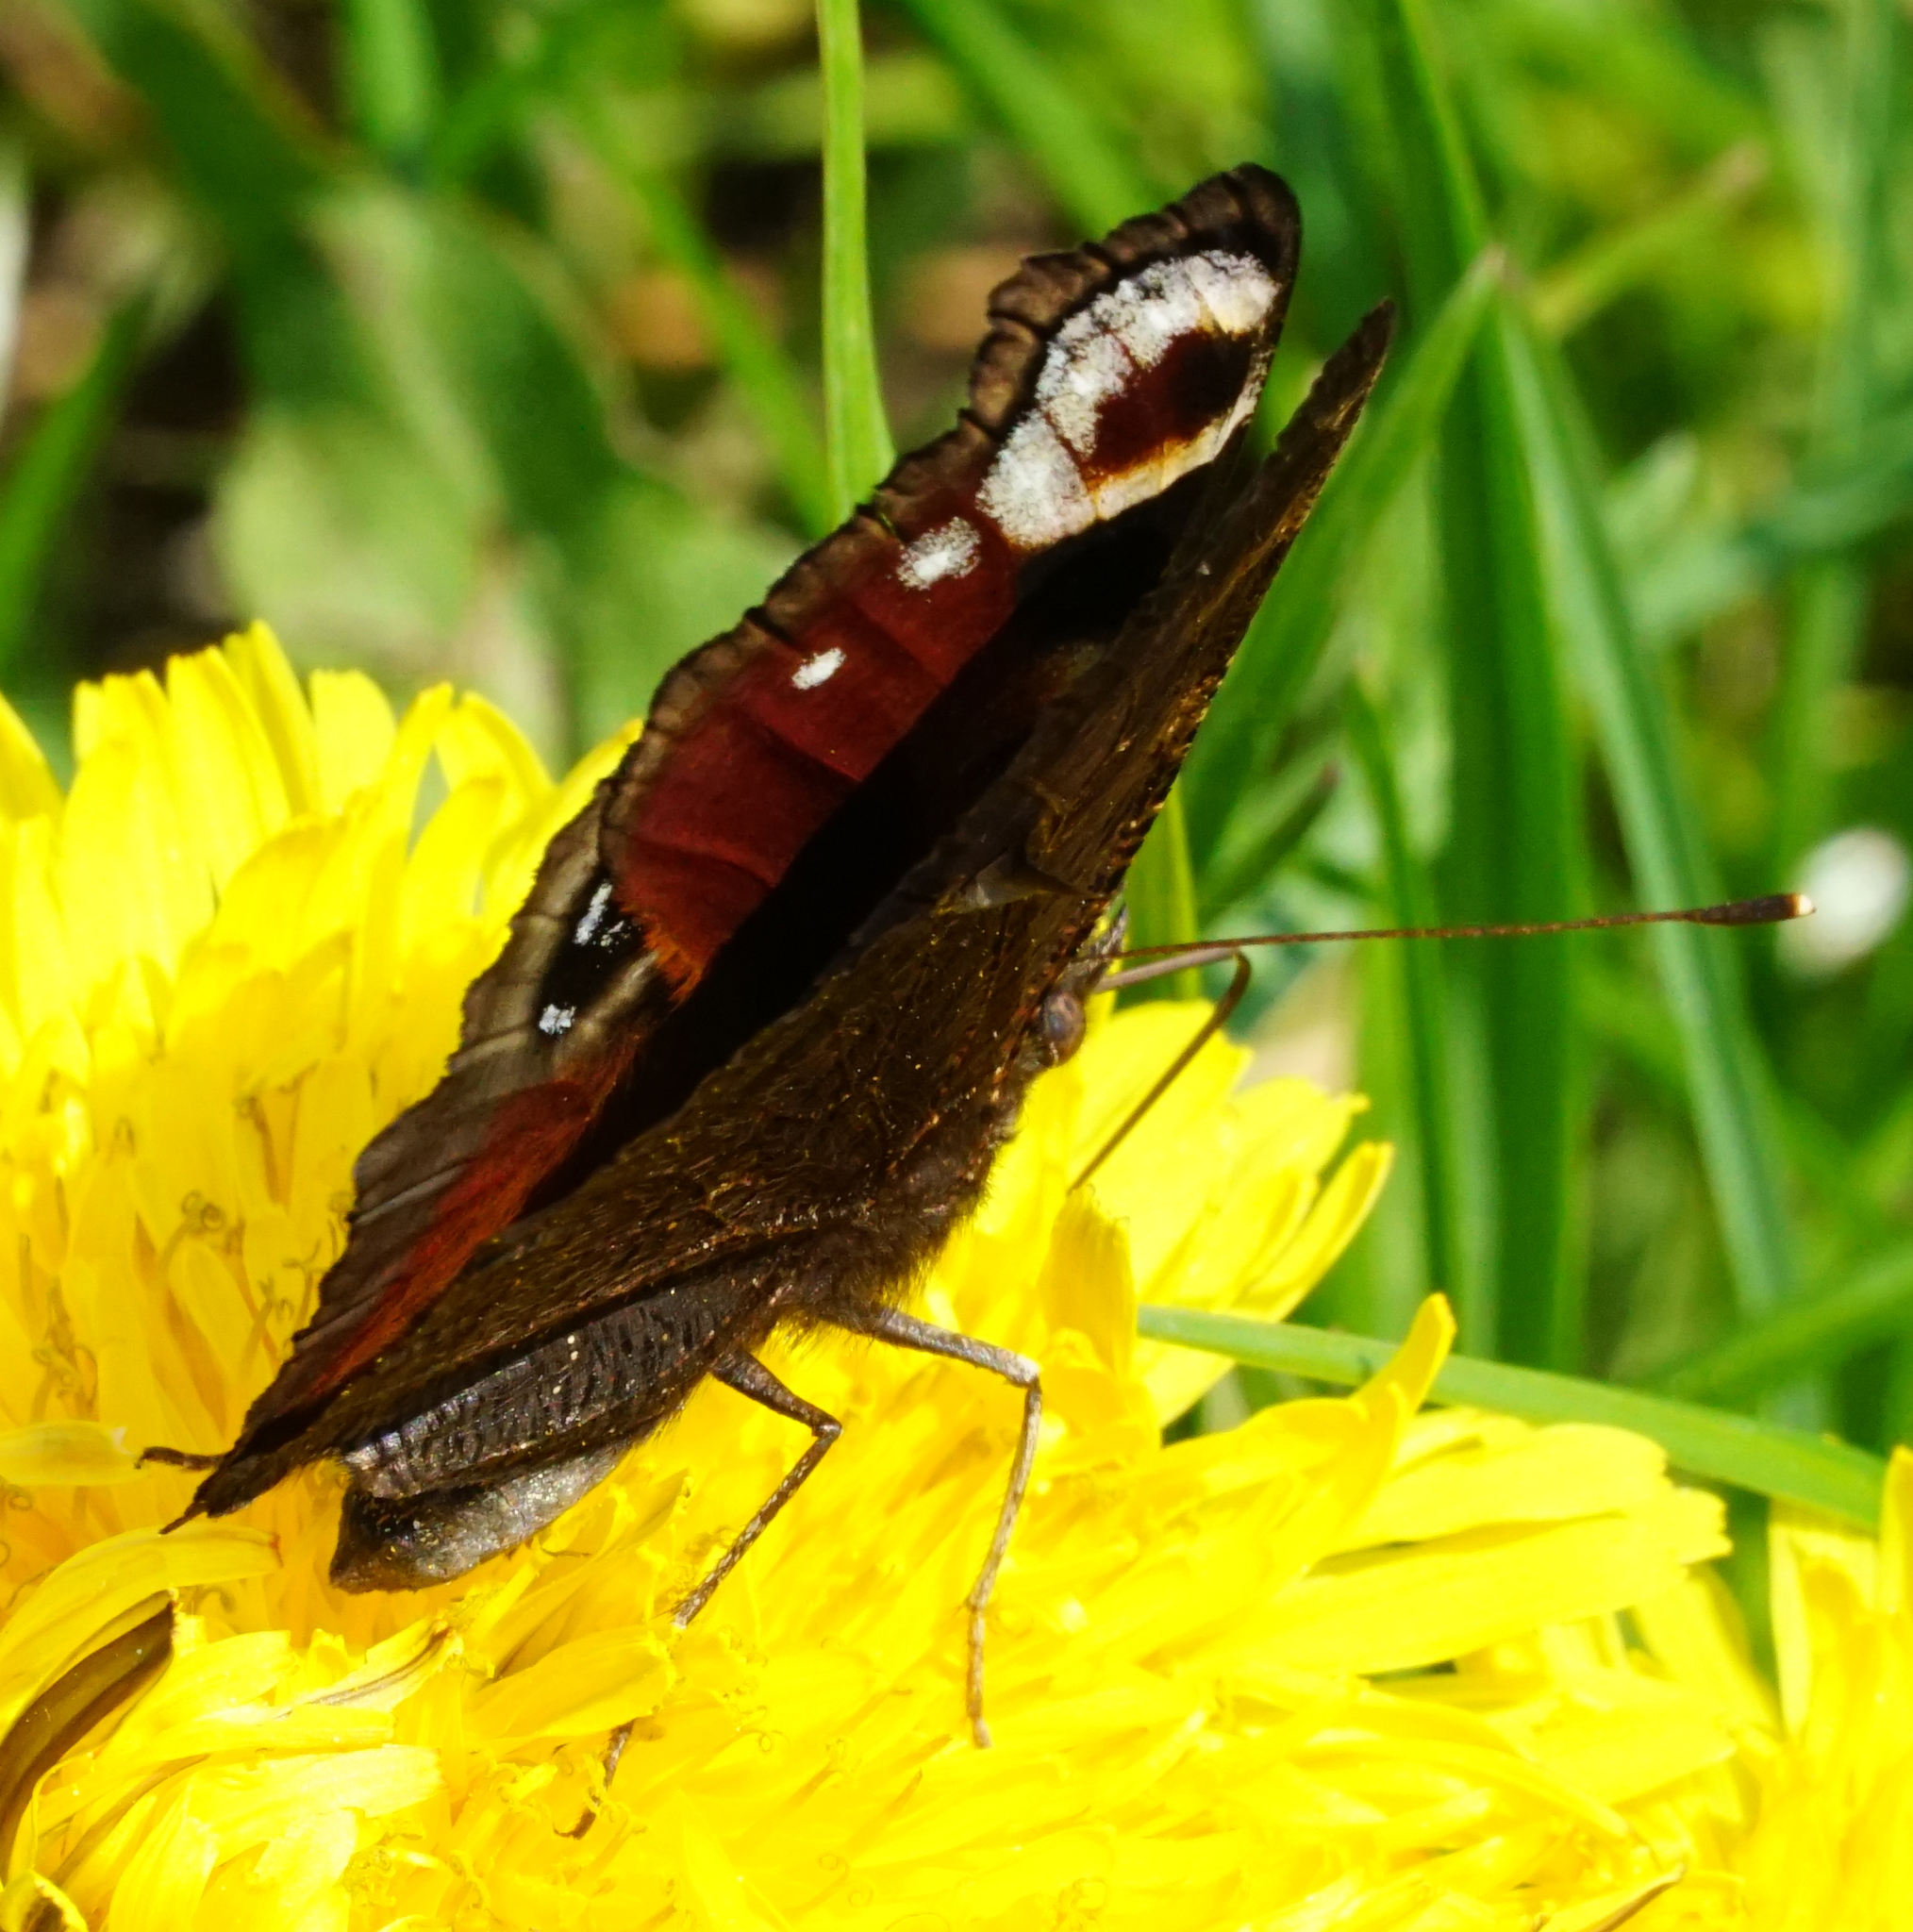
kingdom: Animalia
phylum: Arthropoda
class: Insecta
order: Lepidoptera
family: Nymphalidae
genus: Aglais
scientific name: Aglais io
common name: Peacock
